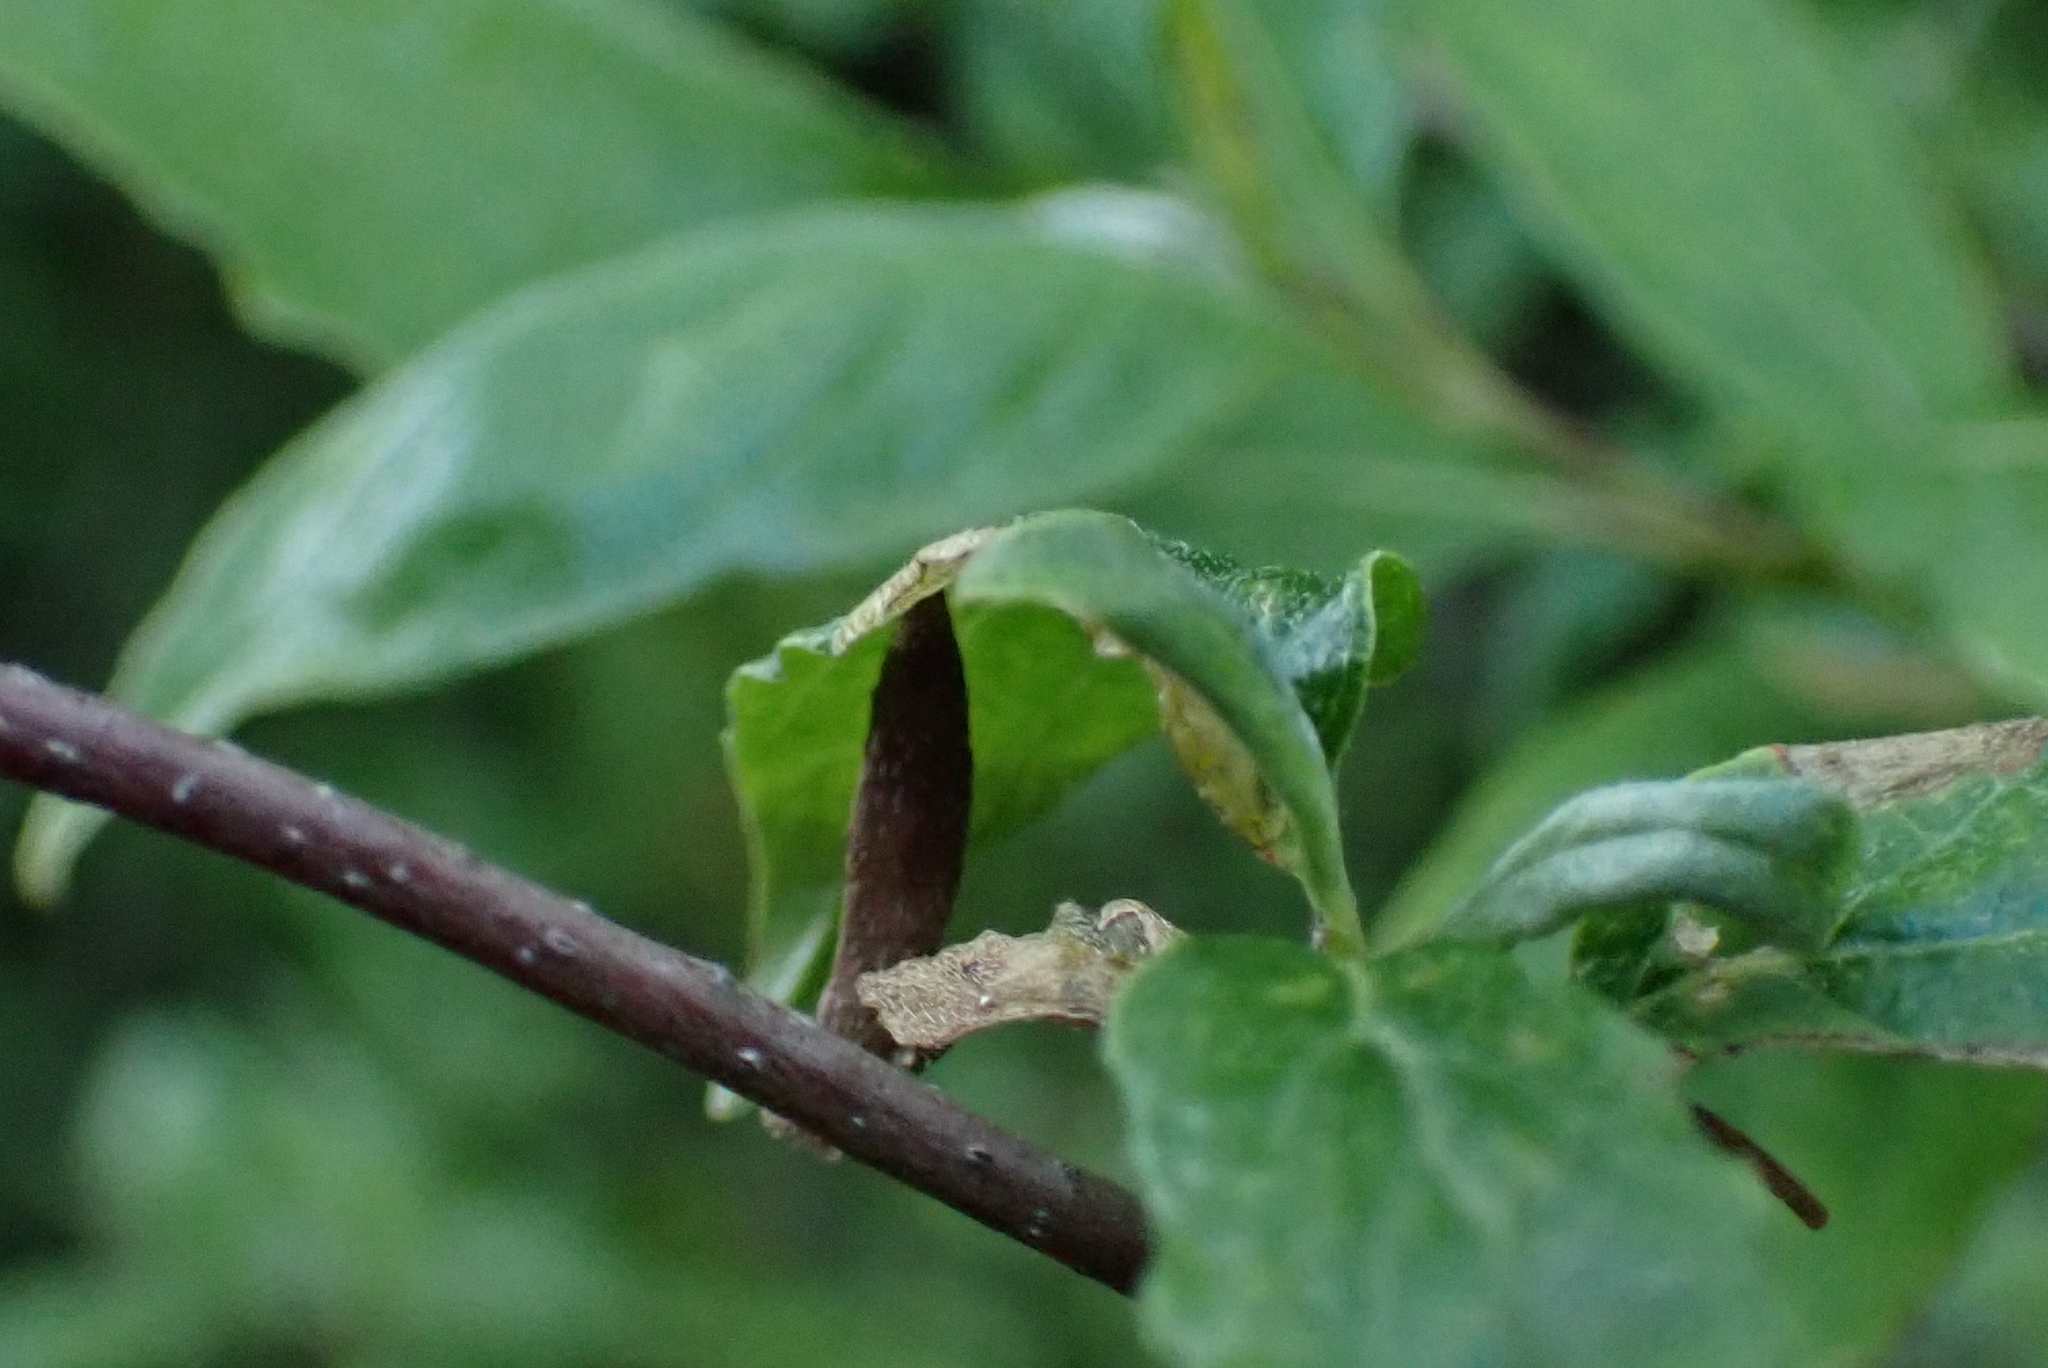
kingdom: Animalia
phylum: Arthropoda
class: Insecta
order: Lepidoptera
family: Coleophoridae
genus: Coleophora
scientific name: Coleophora cornella
